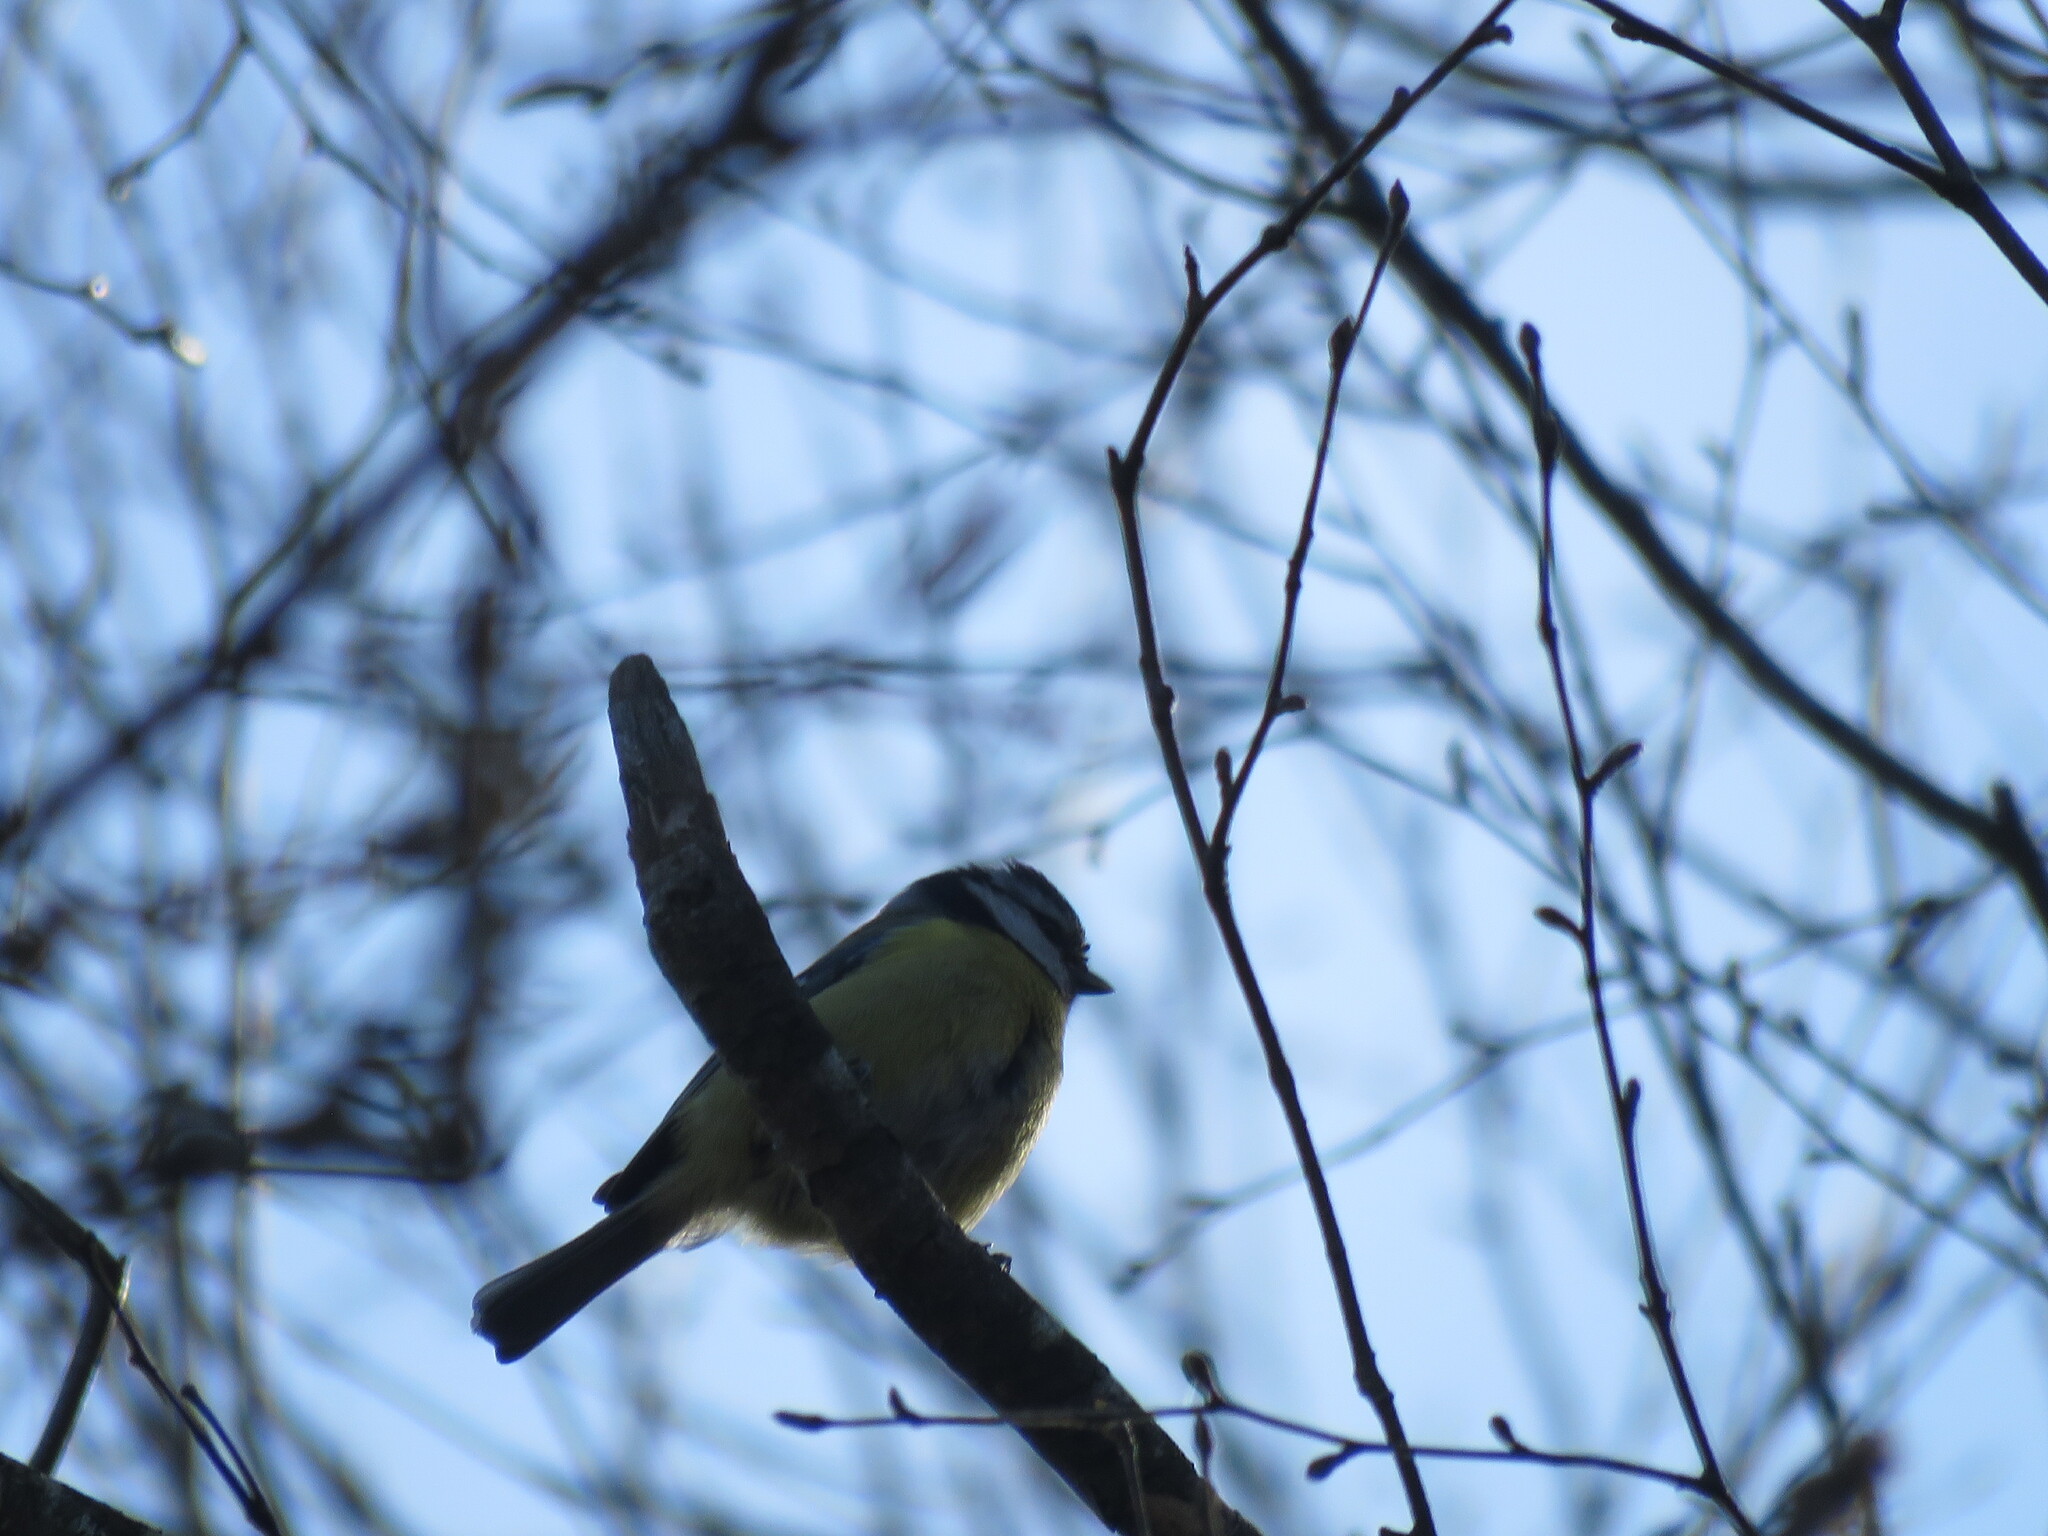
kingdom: Animalia
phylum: Chordata
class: Aves
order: Passeriformes
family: Paridae
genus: Cyanistes
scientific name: Cyanistes caeruleus
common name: Eurasian blue tit
